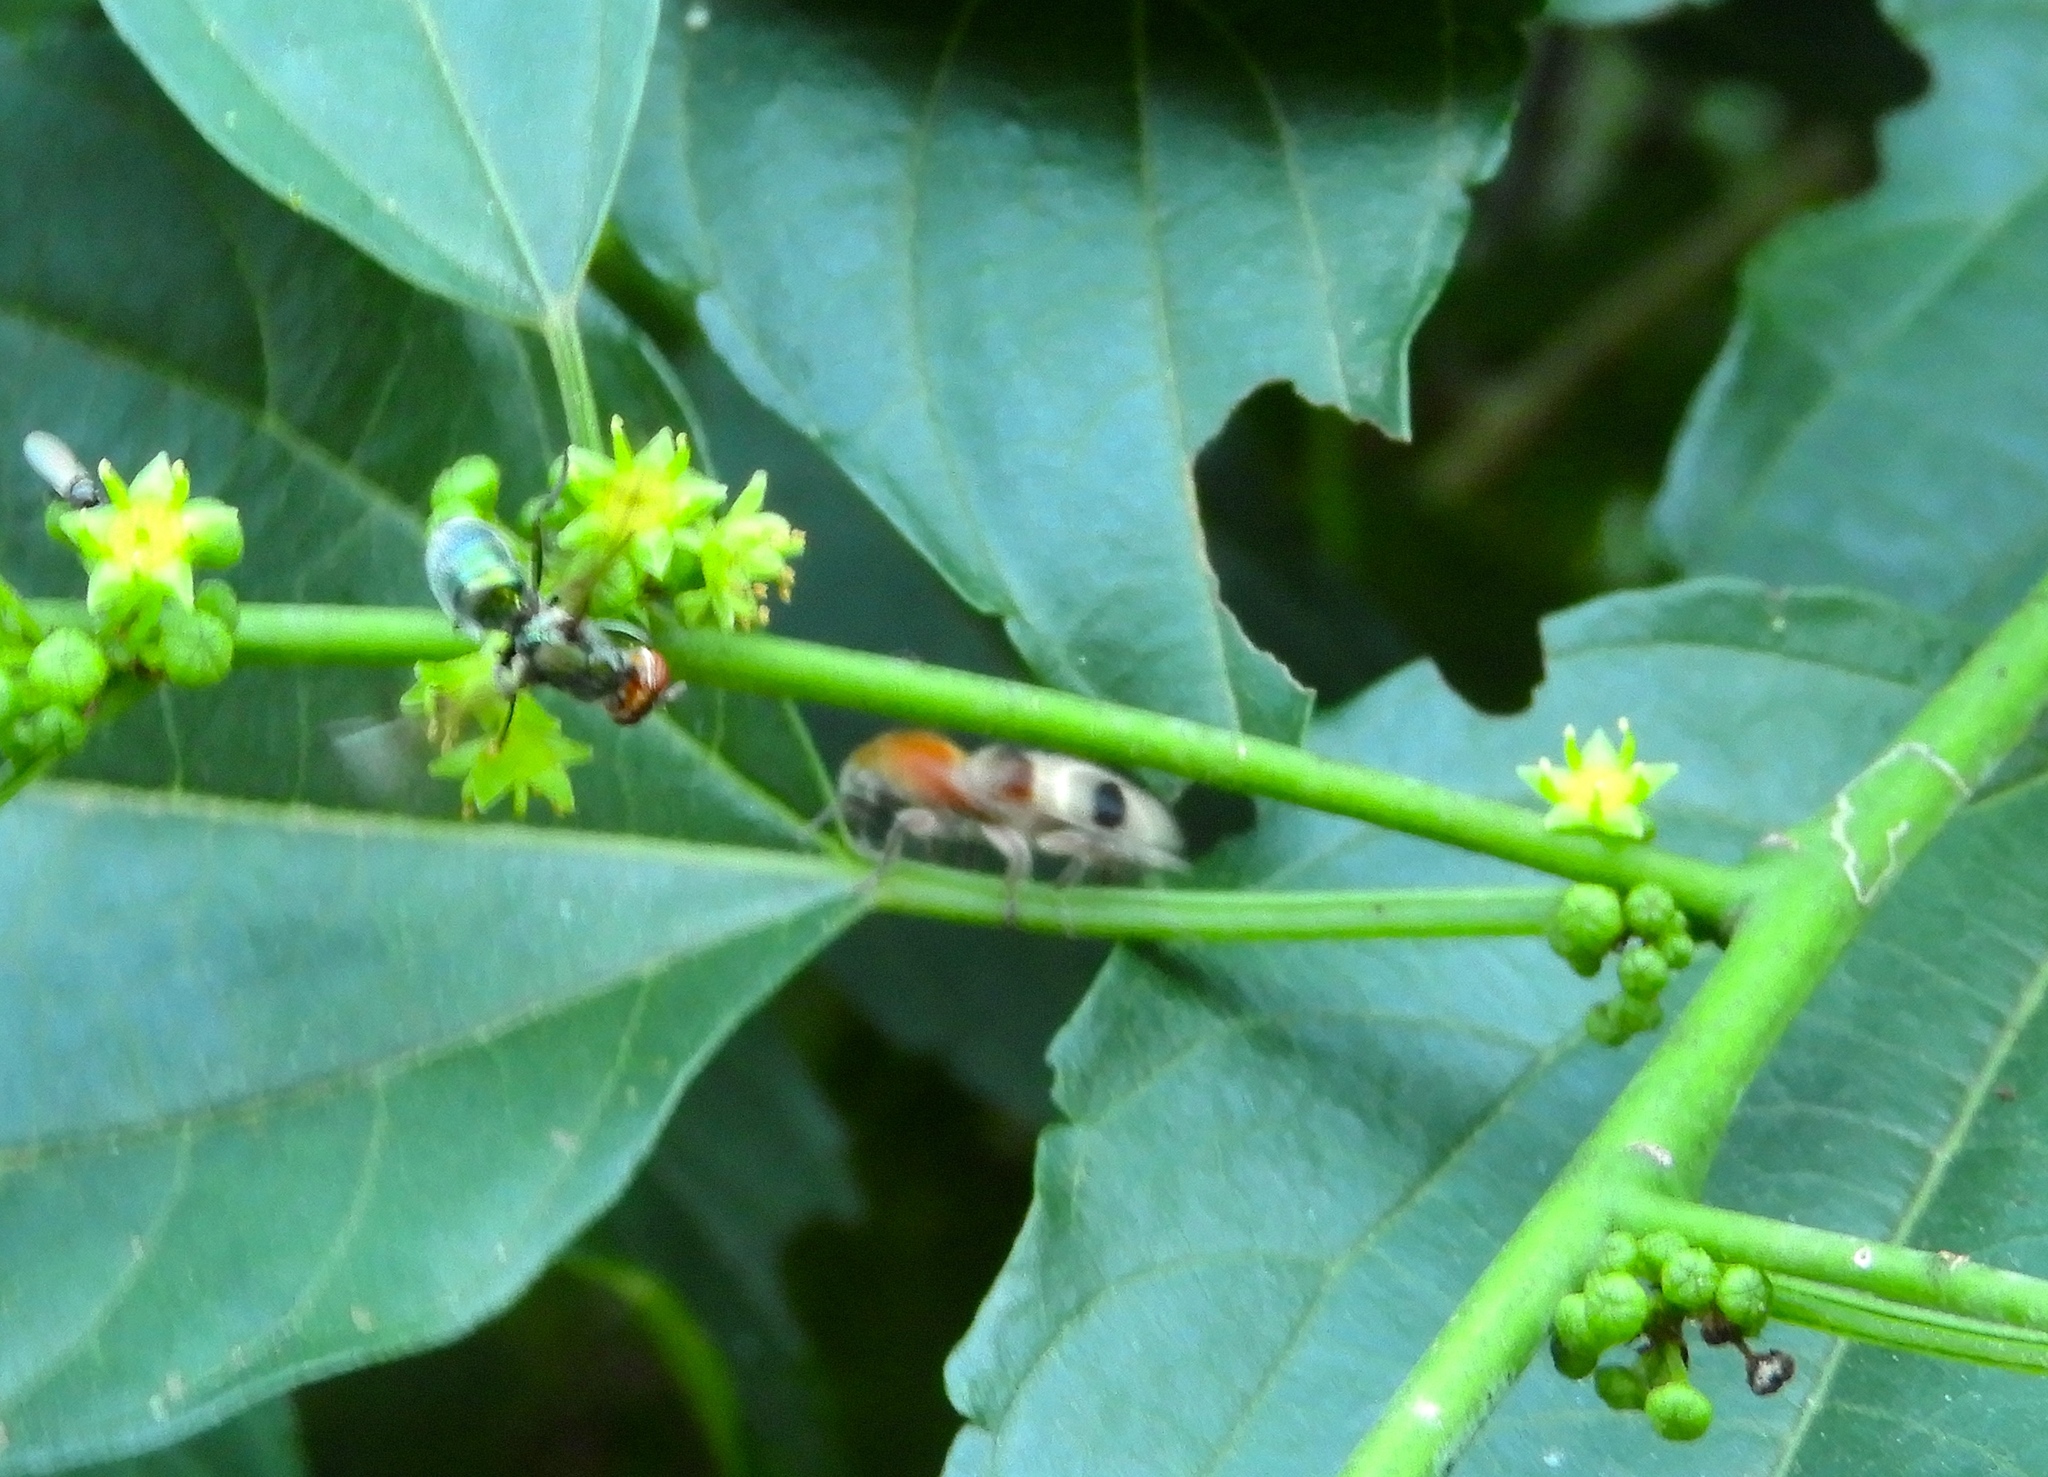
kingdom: Animalia
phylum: Arthropoda
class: Insecta
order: Coleoptera
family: Cleridae
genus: Enoclerus
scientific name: Enoclerus quadriguttatus
